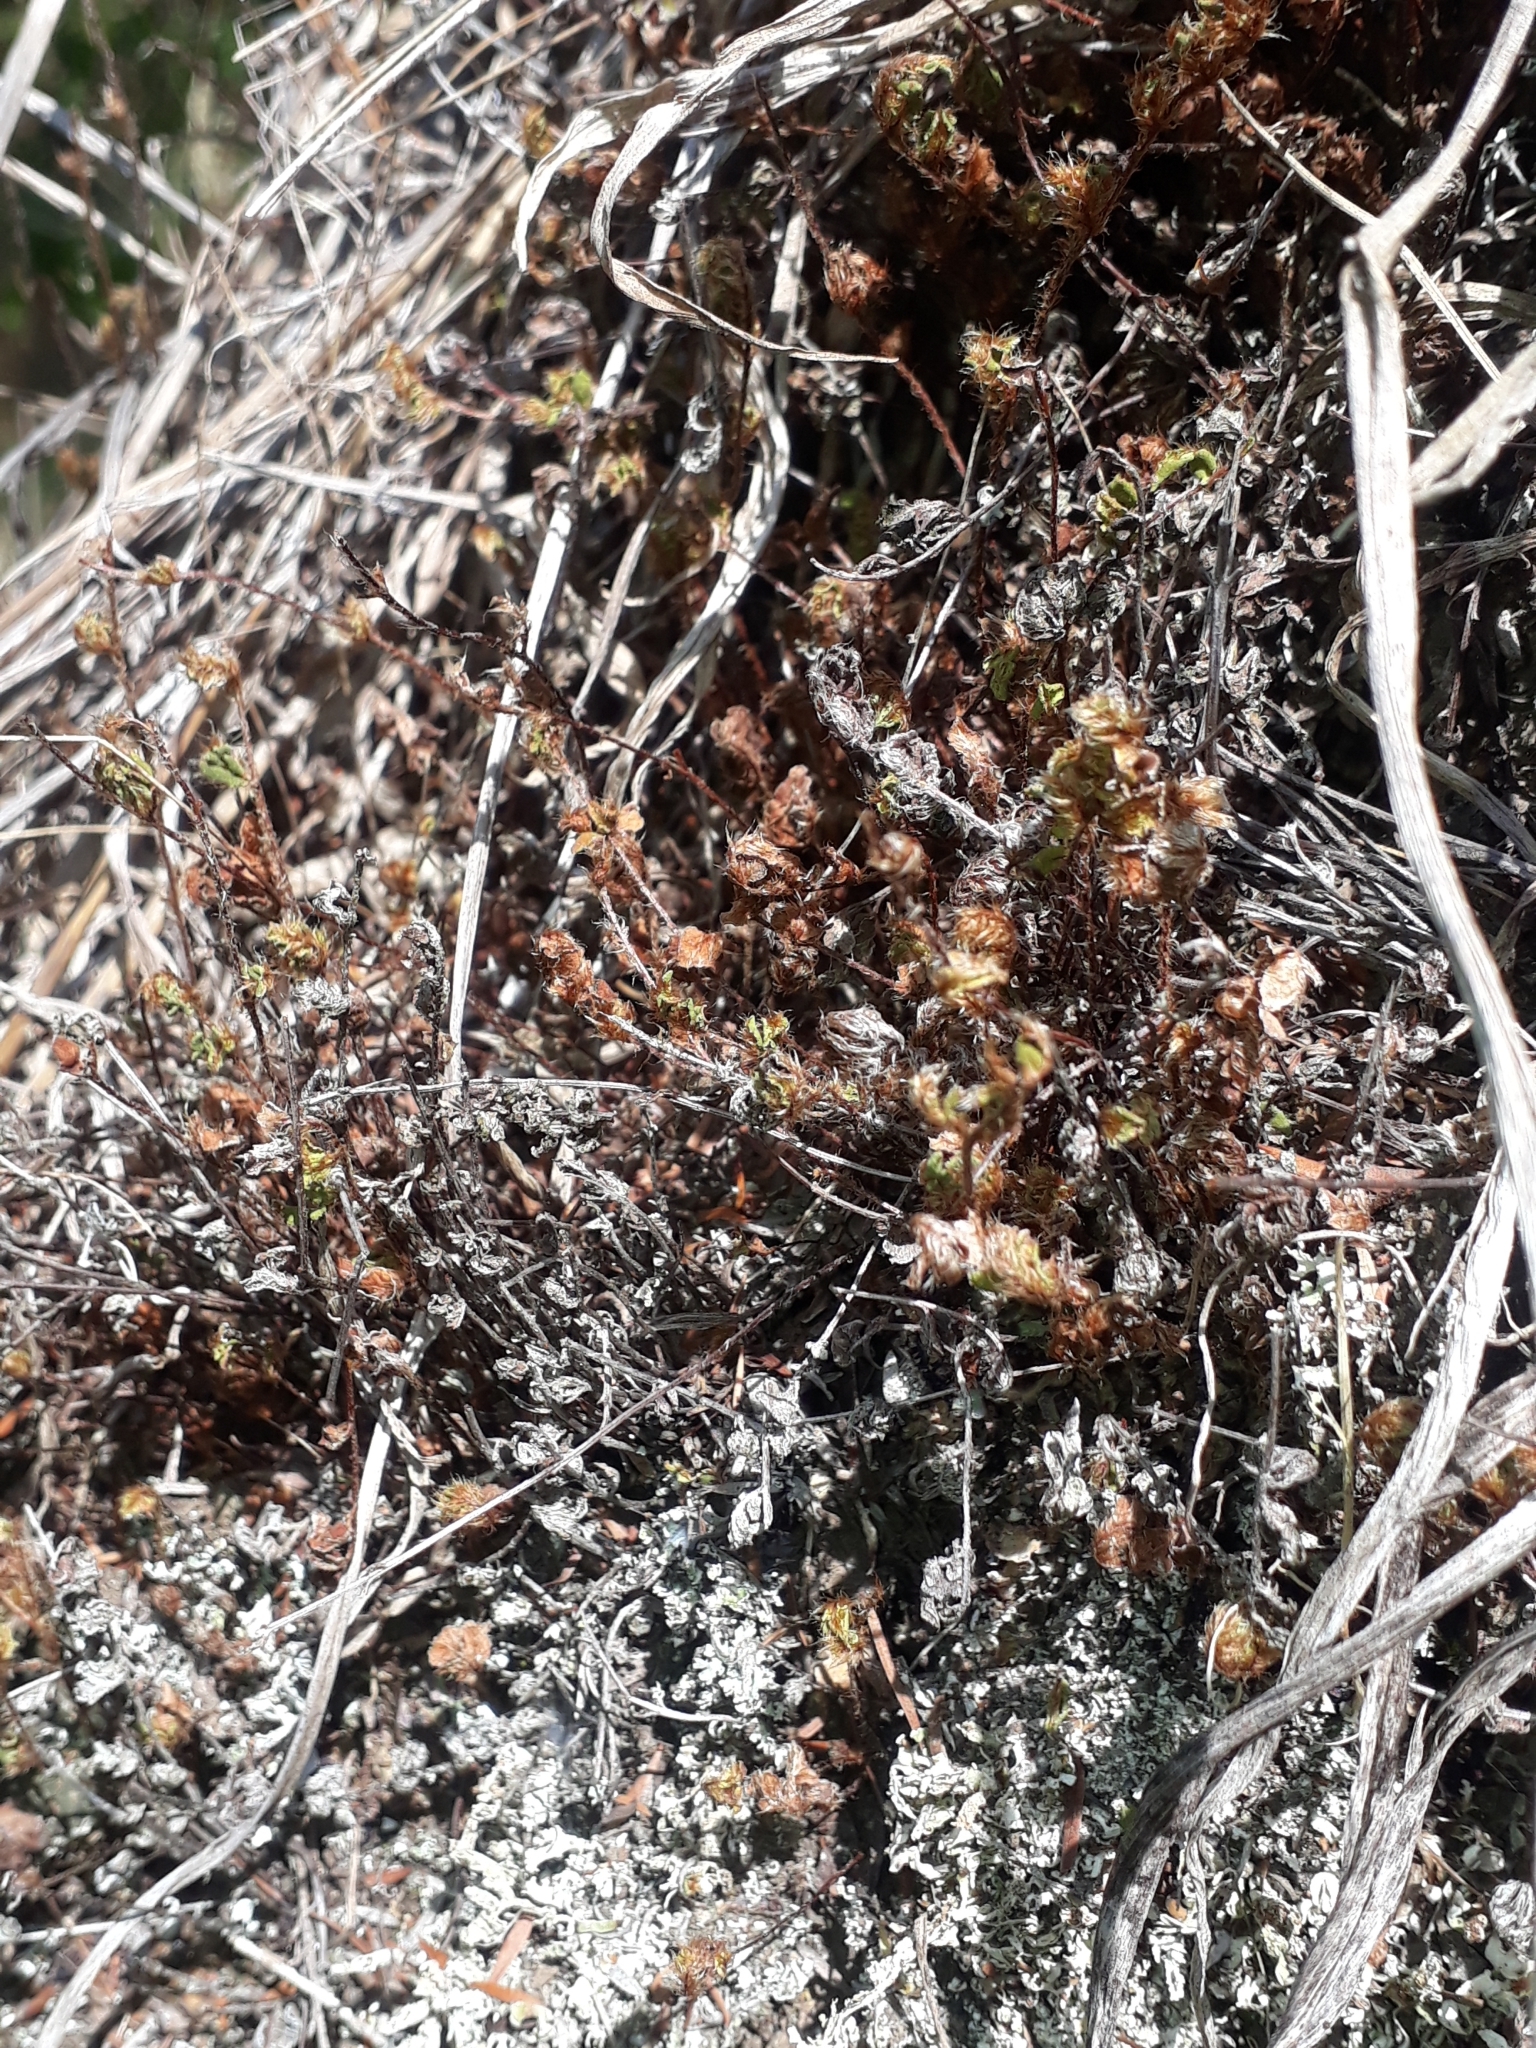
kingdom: Plantae
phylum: Tracheophyta
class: Polypodiopsida
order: Polypodiales
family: Pteridaceae
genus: Cheilanthes
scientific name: Cheilanthes distans
